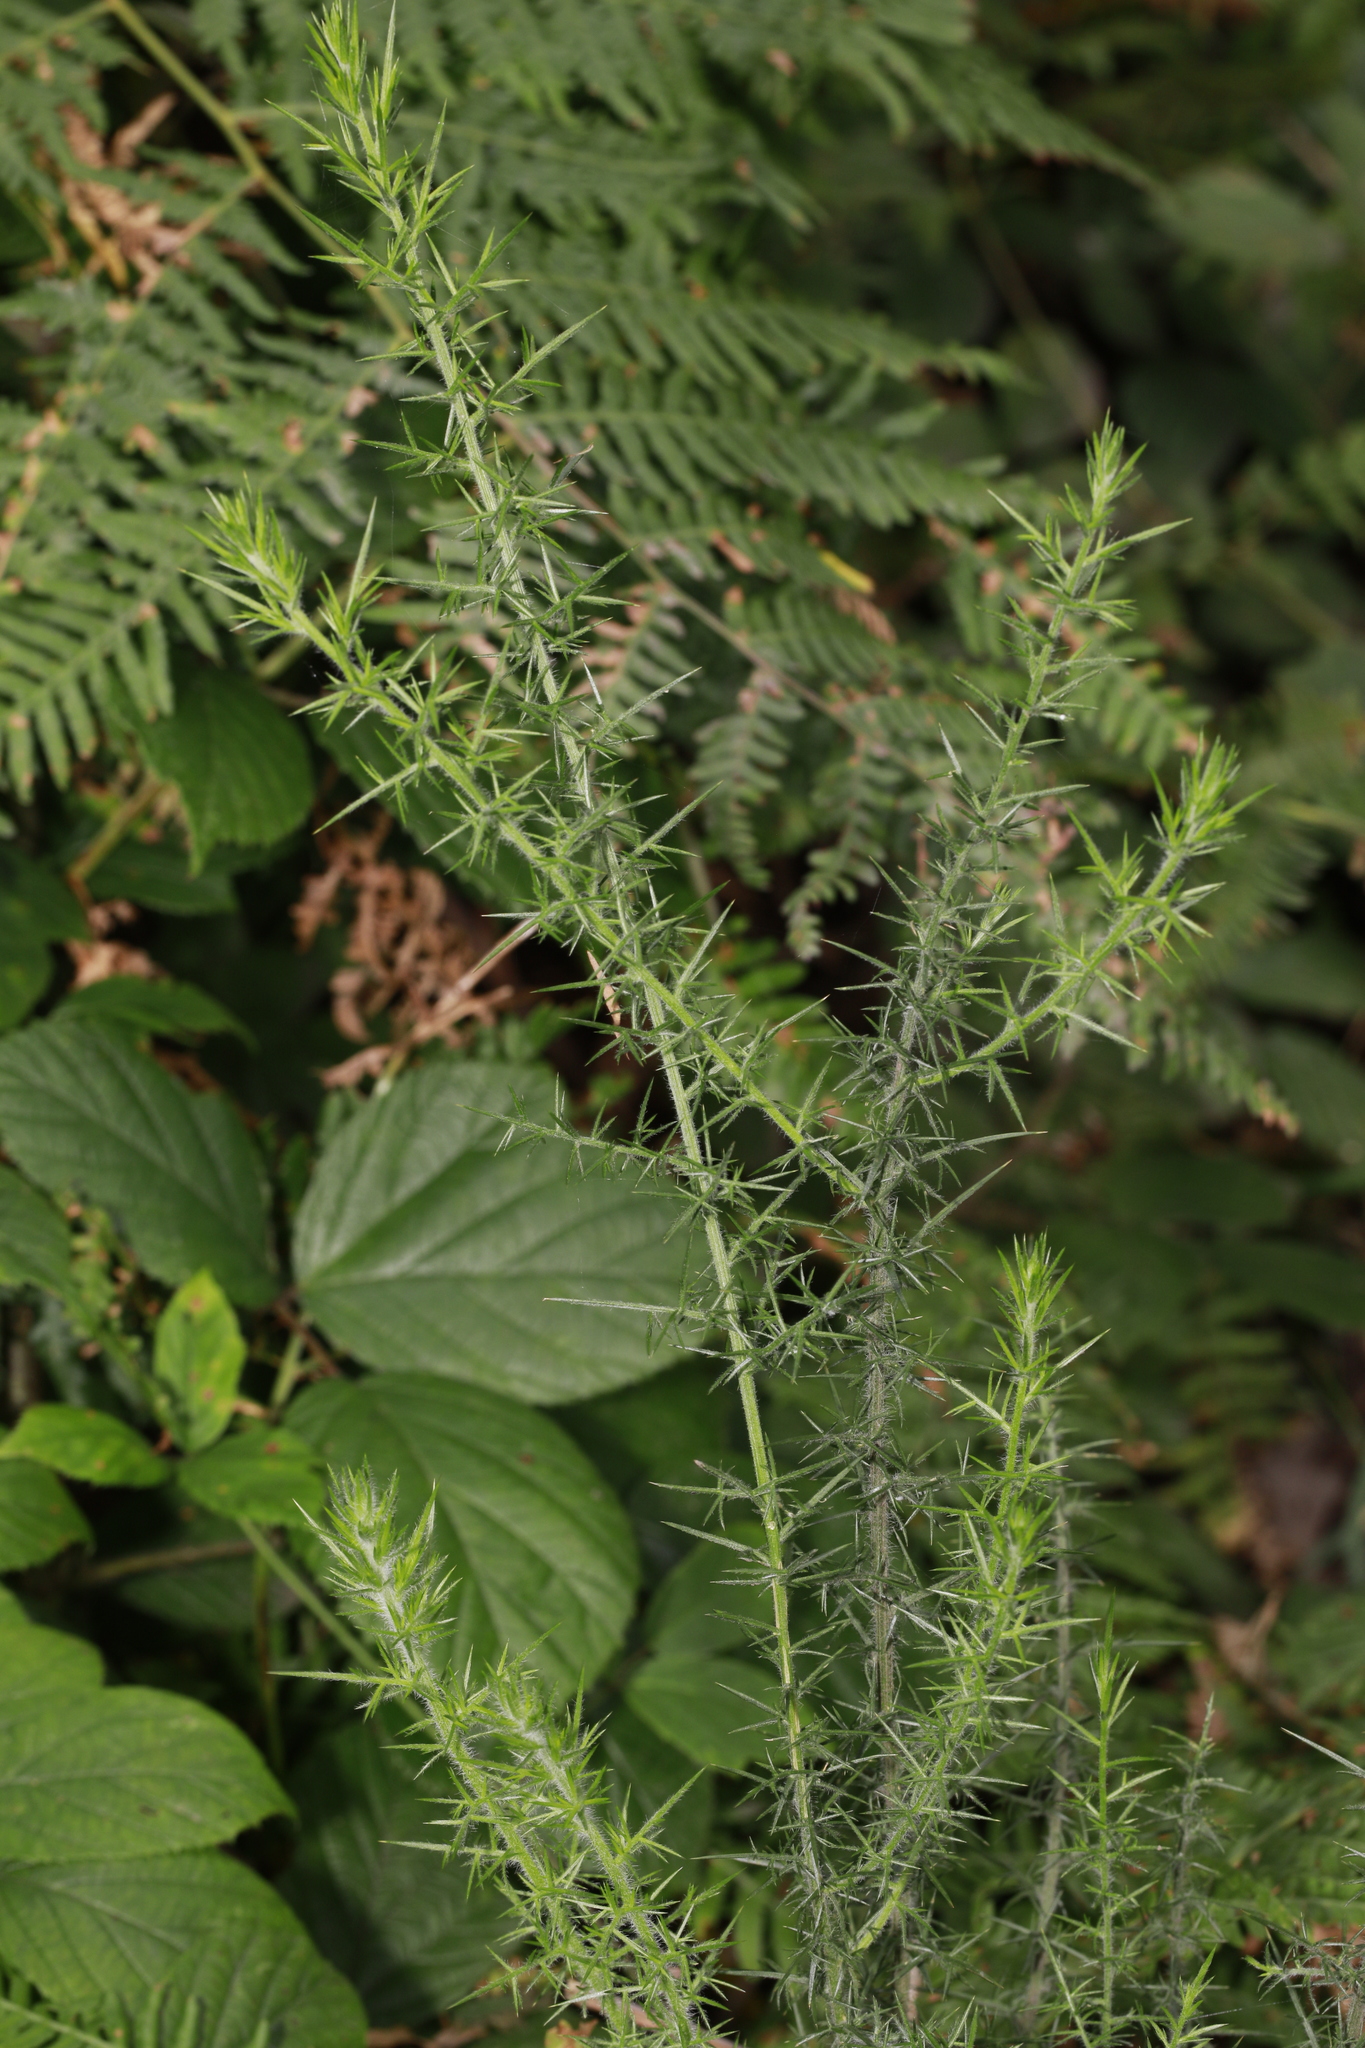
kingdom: Plantae
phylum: Tracheophyta
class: Magnoliopsida
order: Fabales
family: Fabaceae
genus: Ulex
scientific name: Ulex europaeus
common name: Common gorse
